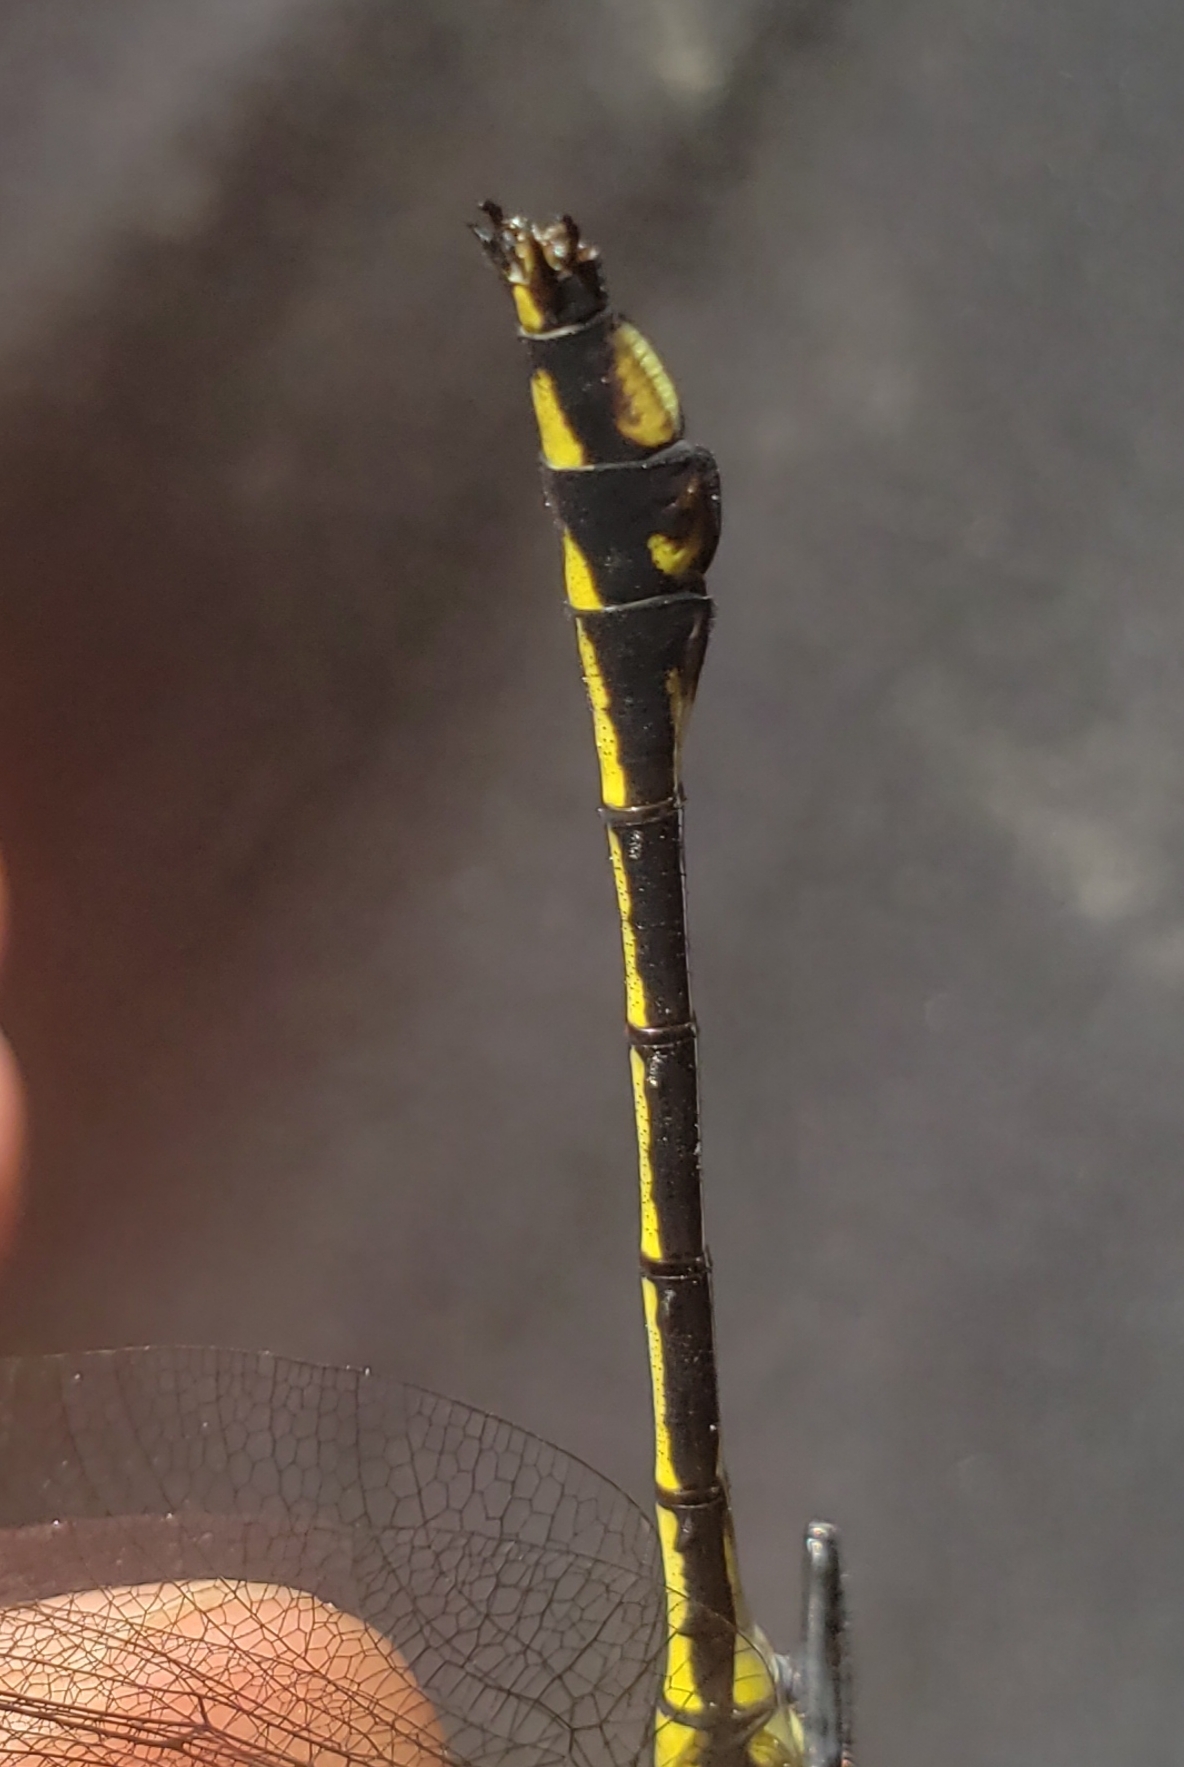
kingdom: Animalia
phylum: Arthropoda
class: Insecta
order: Odonata
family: Gomphidae
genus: Dromogomphus
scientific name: Dromogomphus spinosus
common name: Black-shouldered spinyleg
